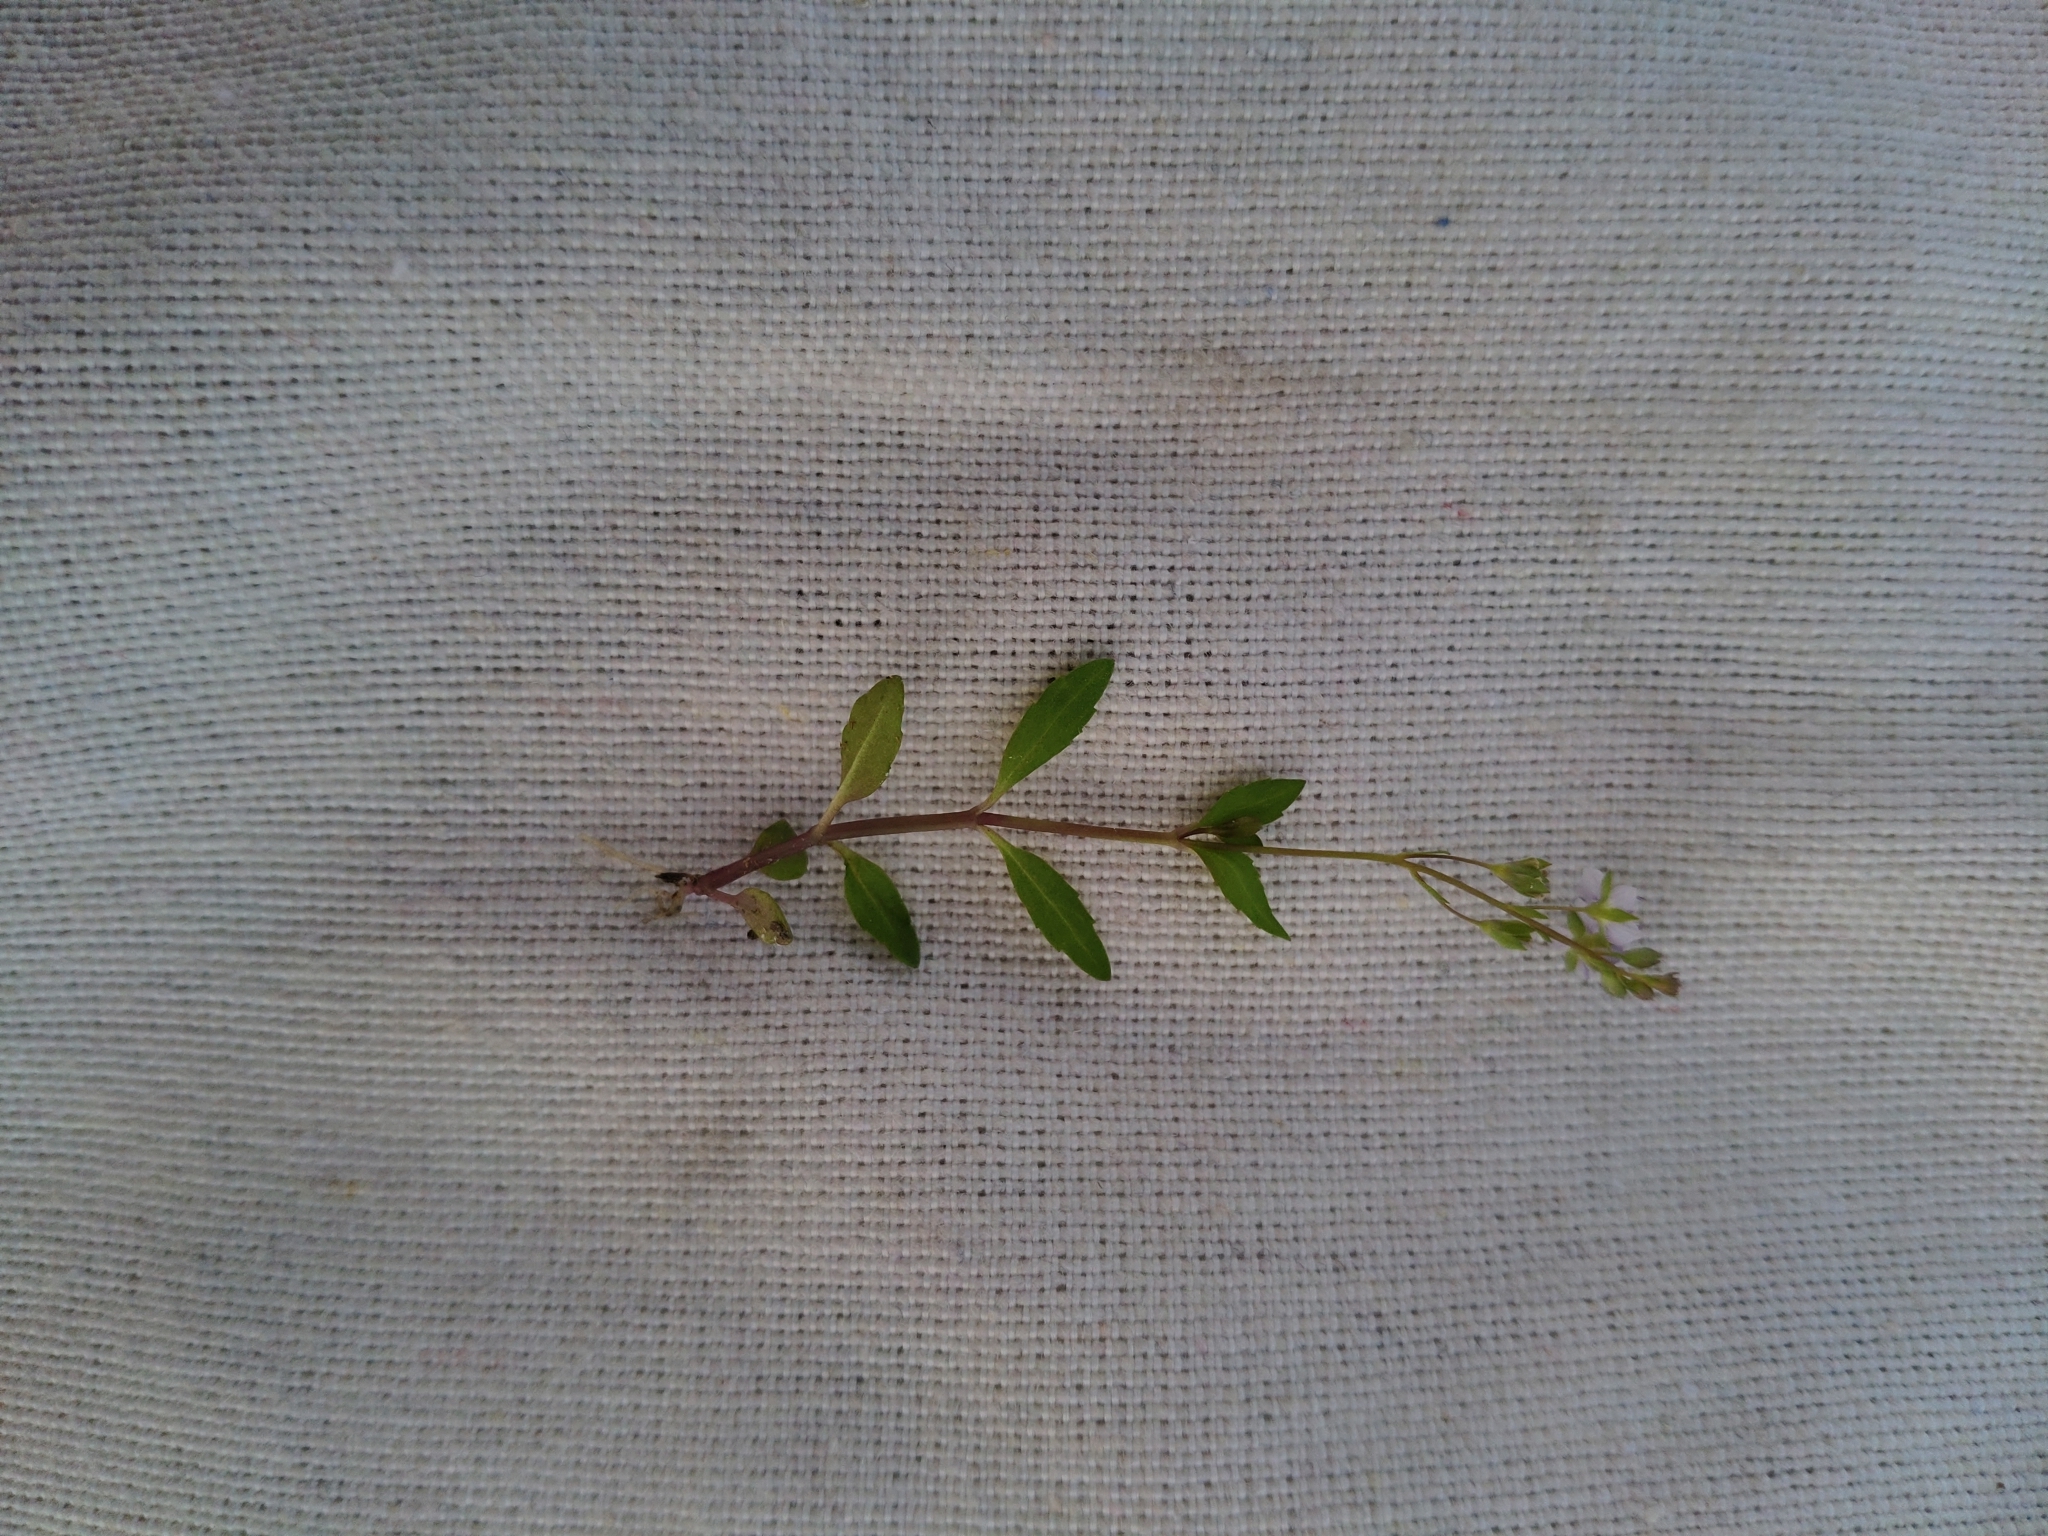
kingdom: Plantae
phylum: Tracheophyta
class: Magnoliopsida
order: Lamiales
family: Plantaginaceae
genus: Veronica
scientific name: Veronica beccabunga
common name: Brooklime
